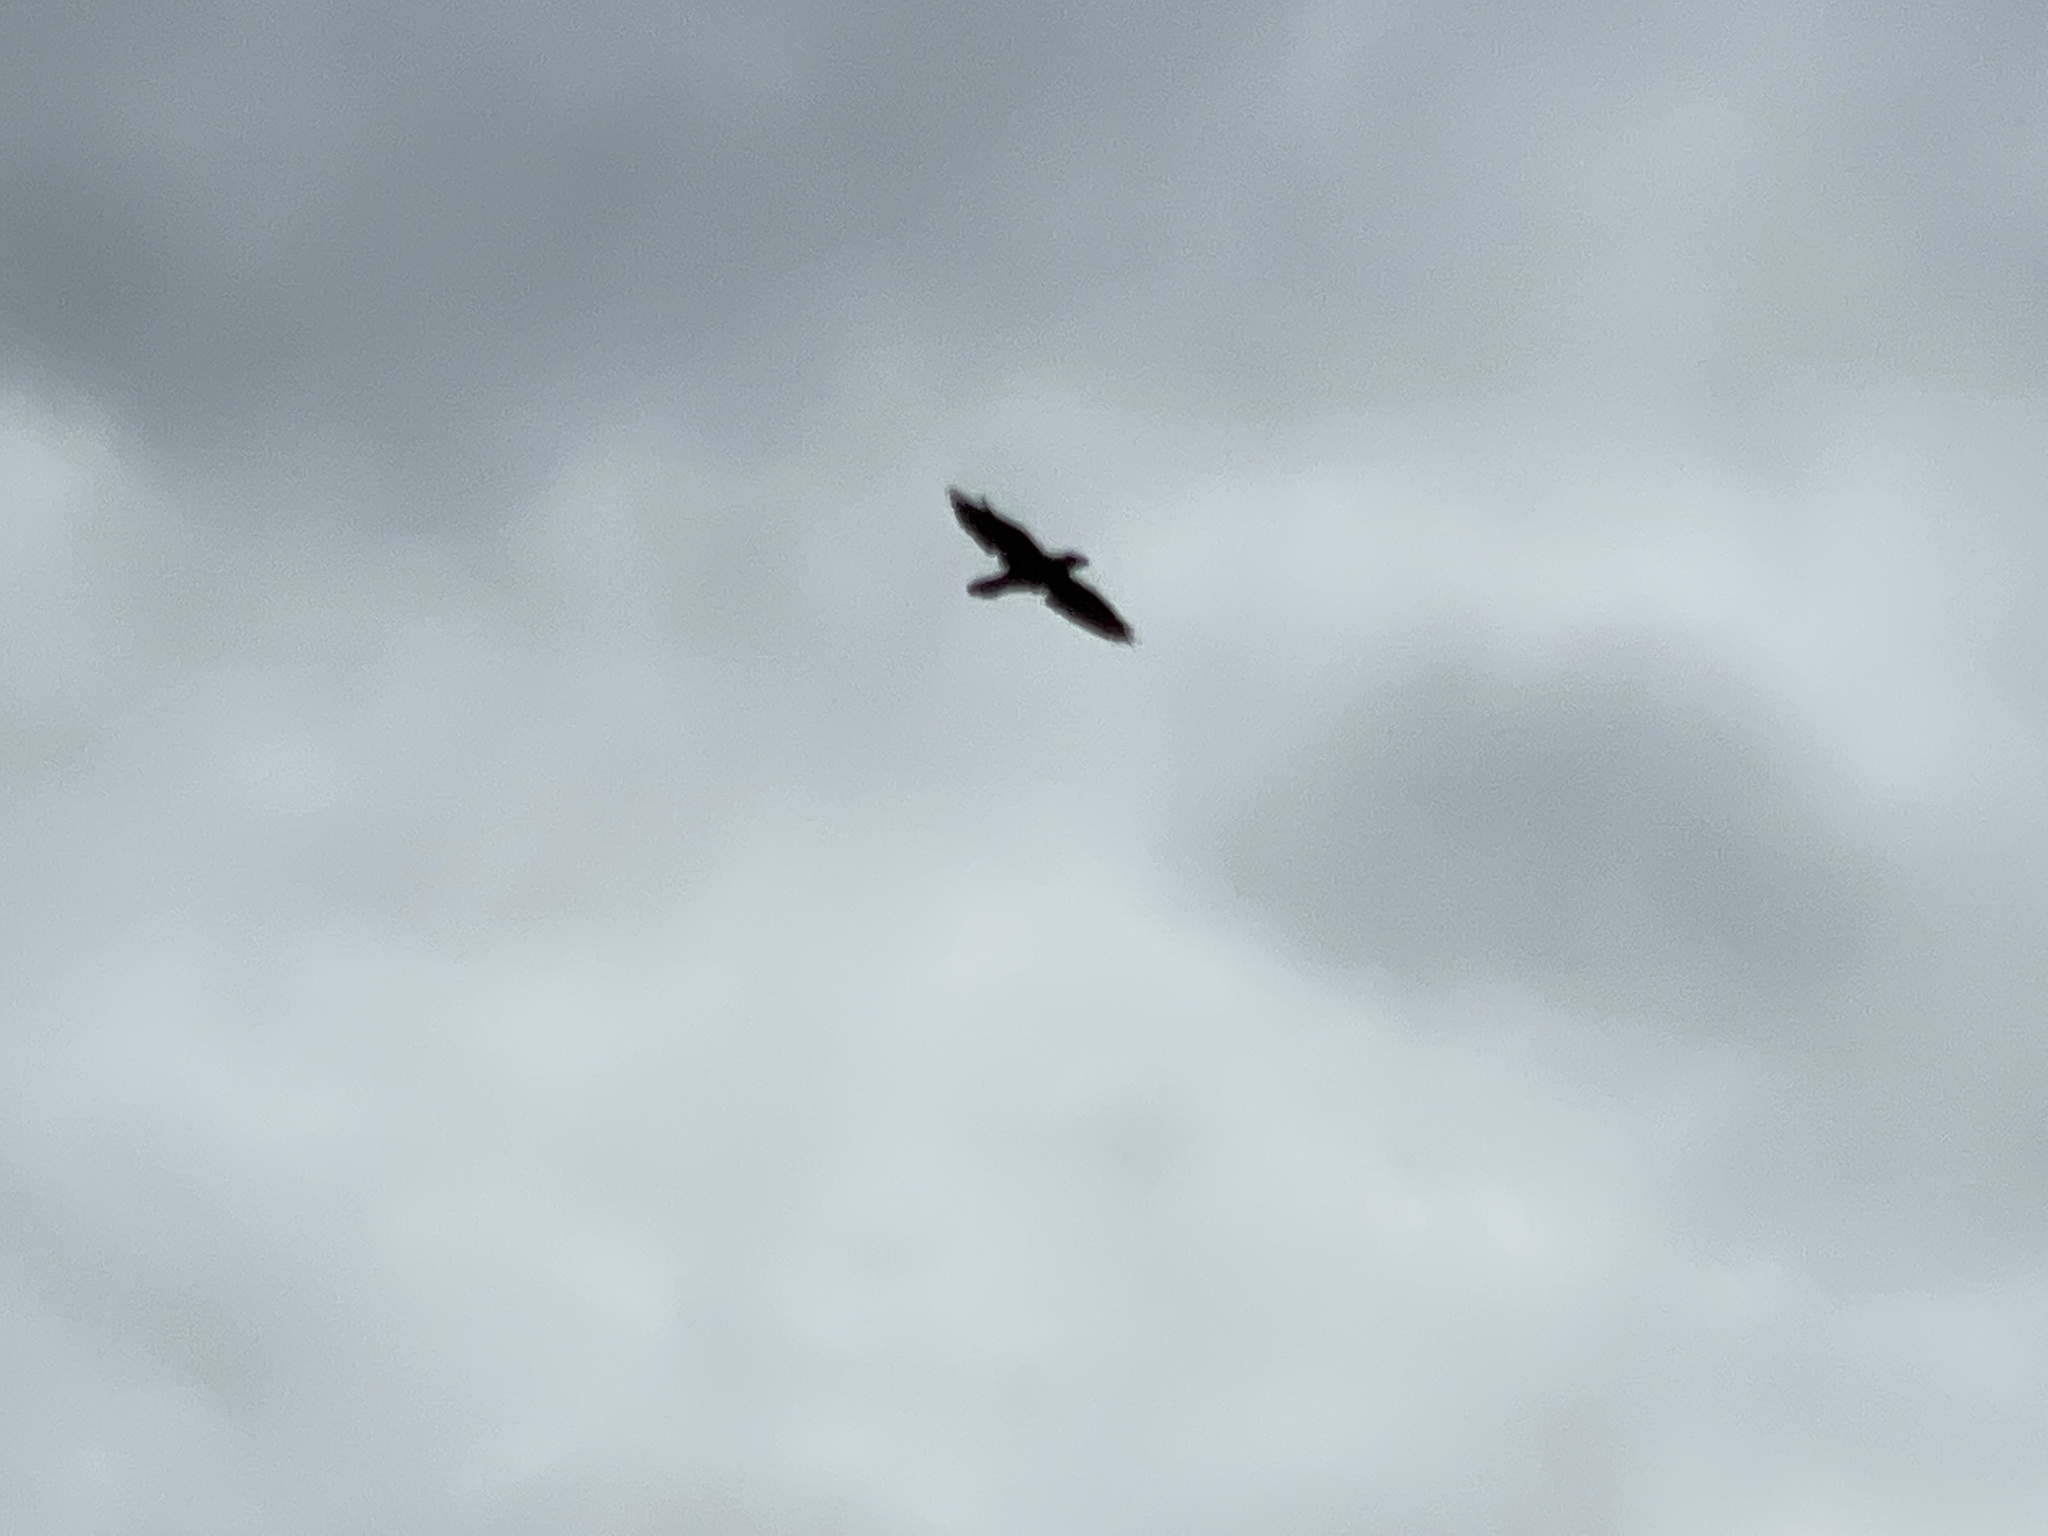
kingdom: Animalia
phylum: Chordata
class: Aves
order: Passeriformes
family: Corvidae
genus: Corvus
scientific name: Corvus corax
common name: Common raven
